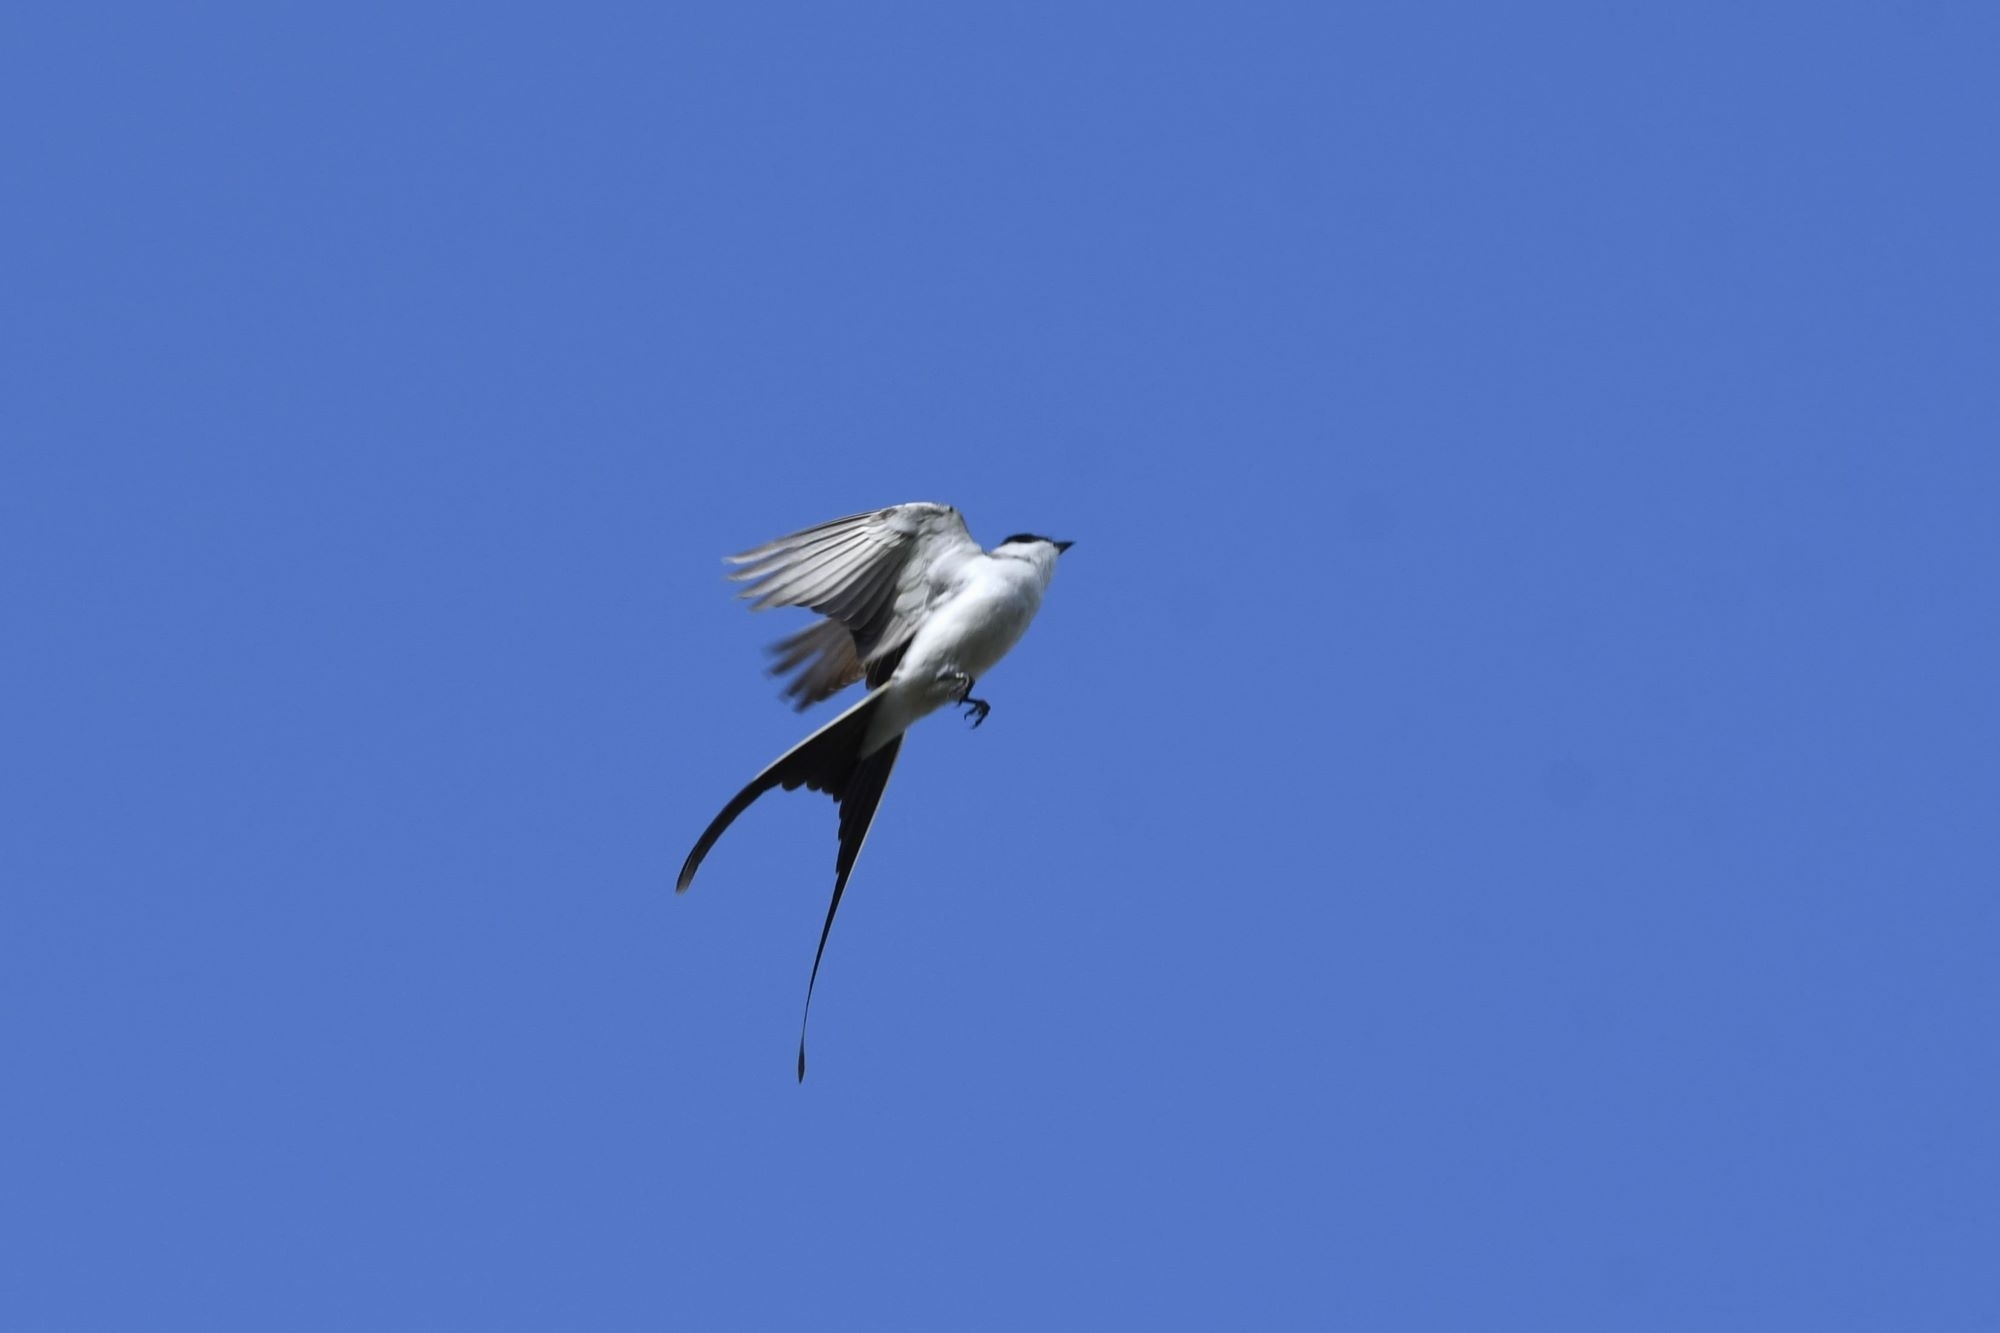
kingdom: Animalia
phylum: Chordata
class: Aves
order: Passeriformes
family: Tyrannidae
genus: Tyrannus
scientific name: Tyrannus savana
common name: Fork-tailed flycatcher
